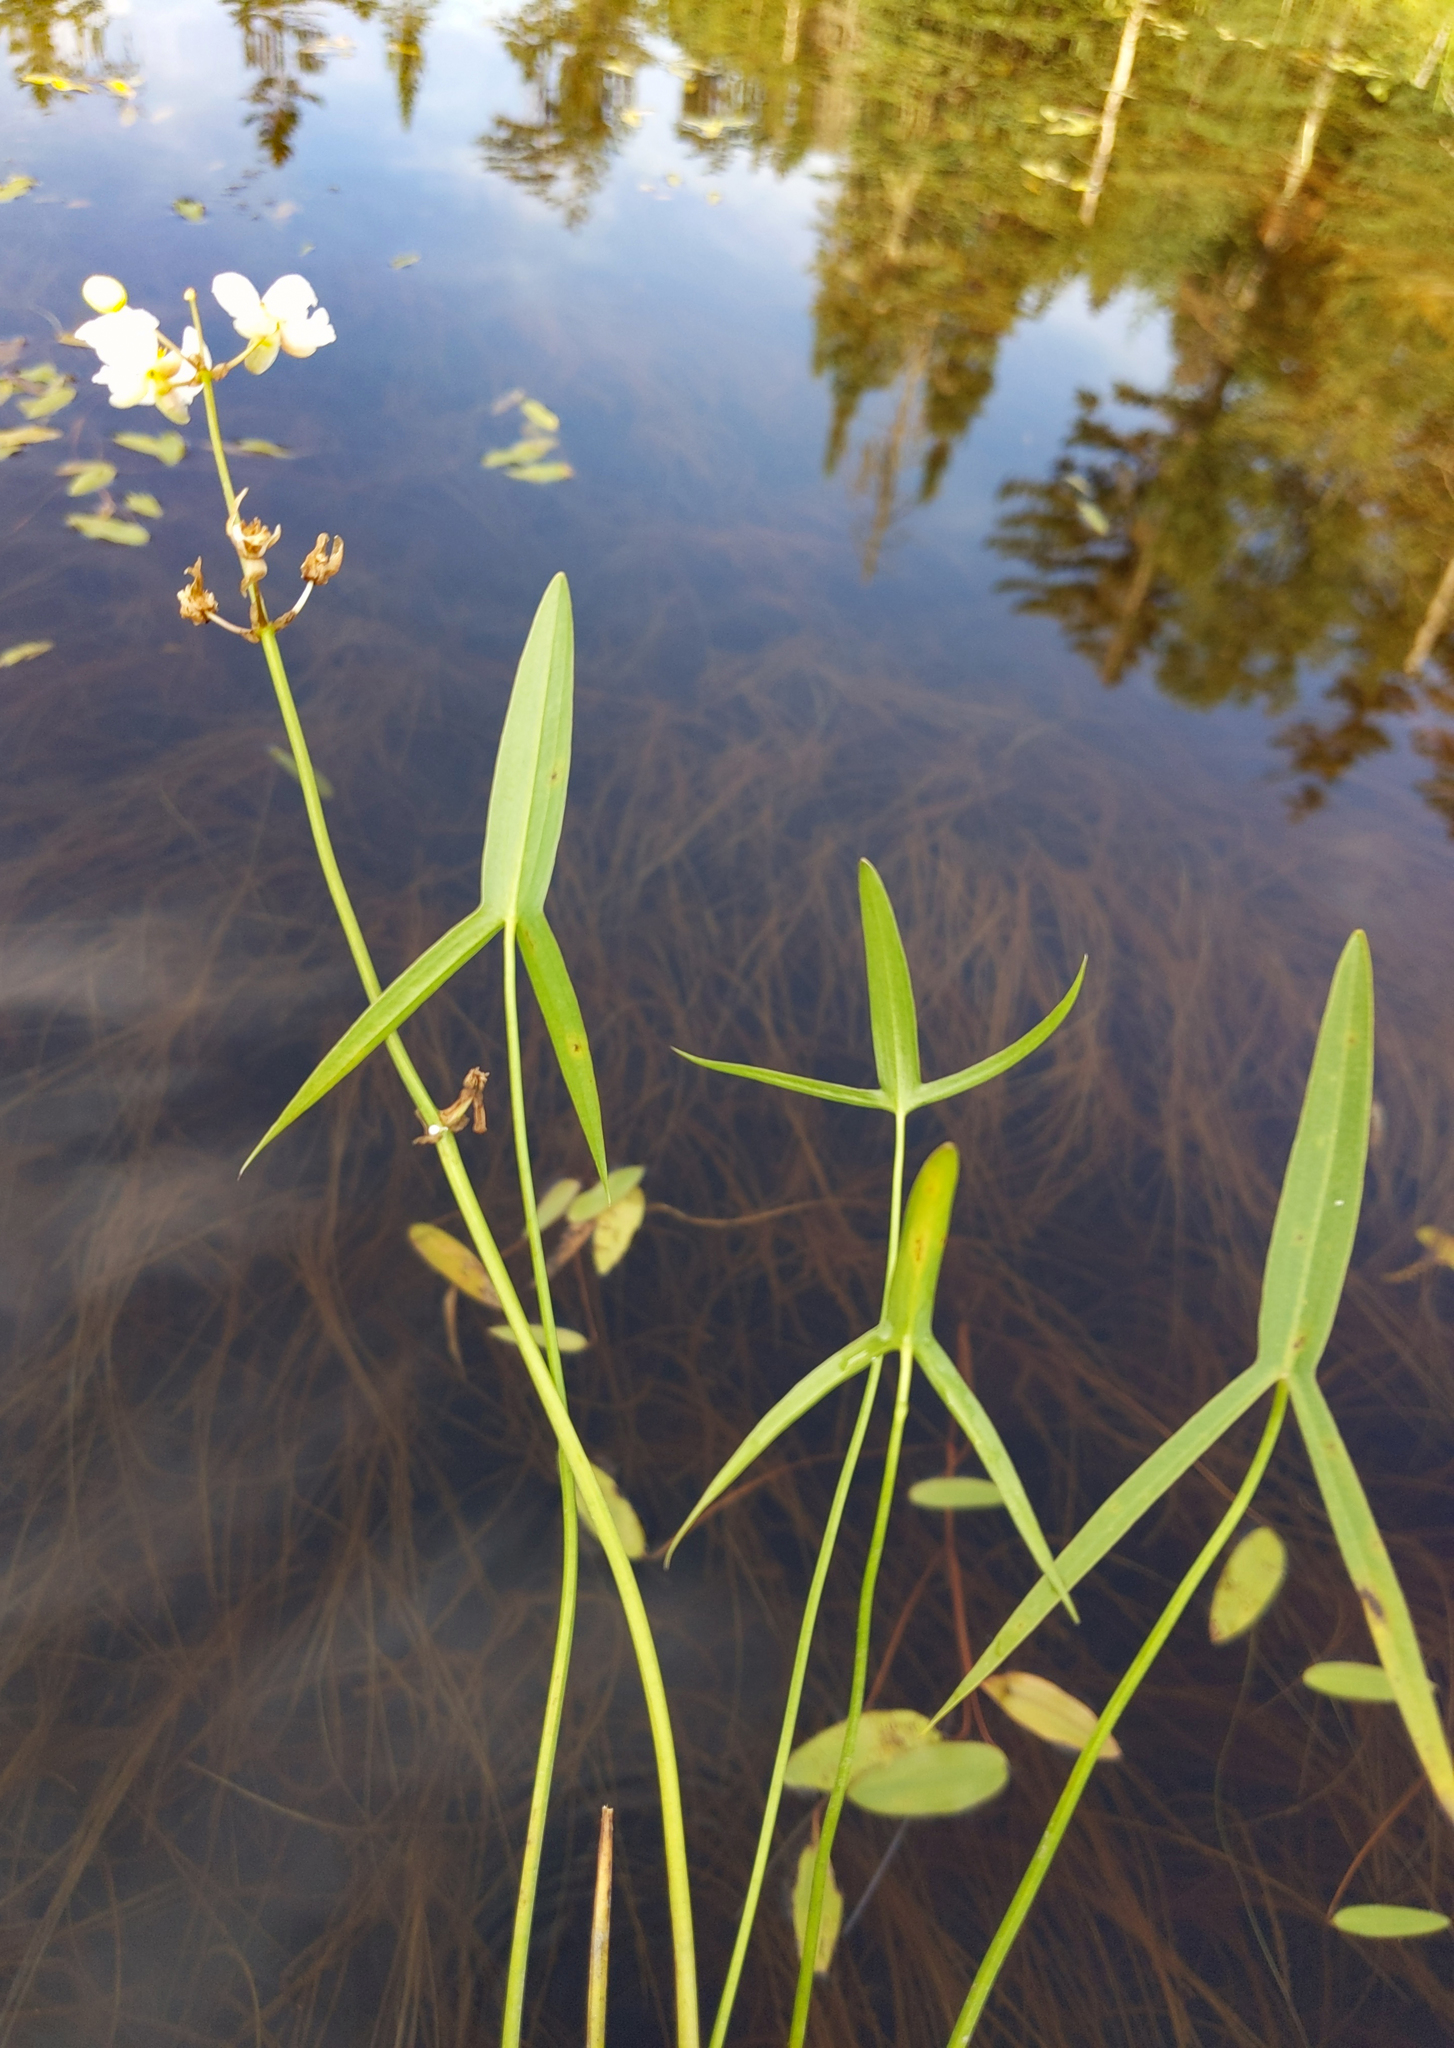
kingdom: Plantae
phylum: Tracheophyta
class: Liliopsida
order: Alismatales
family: Alismataceae
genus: Sagittaria
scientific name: Sagittaria latifolia
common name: Duck-potato
